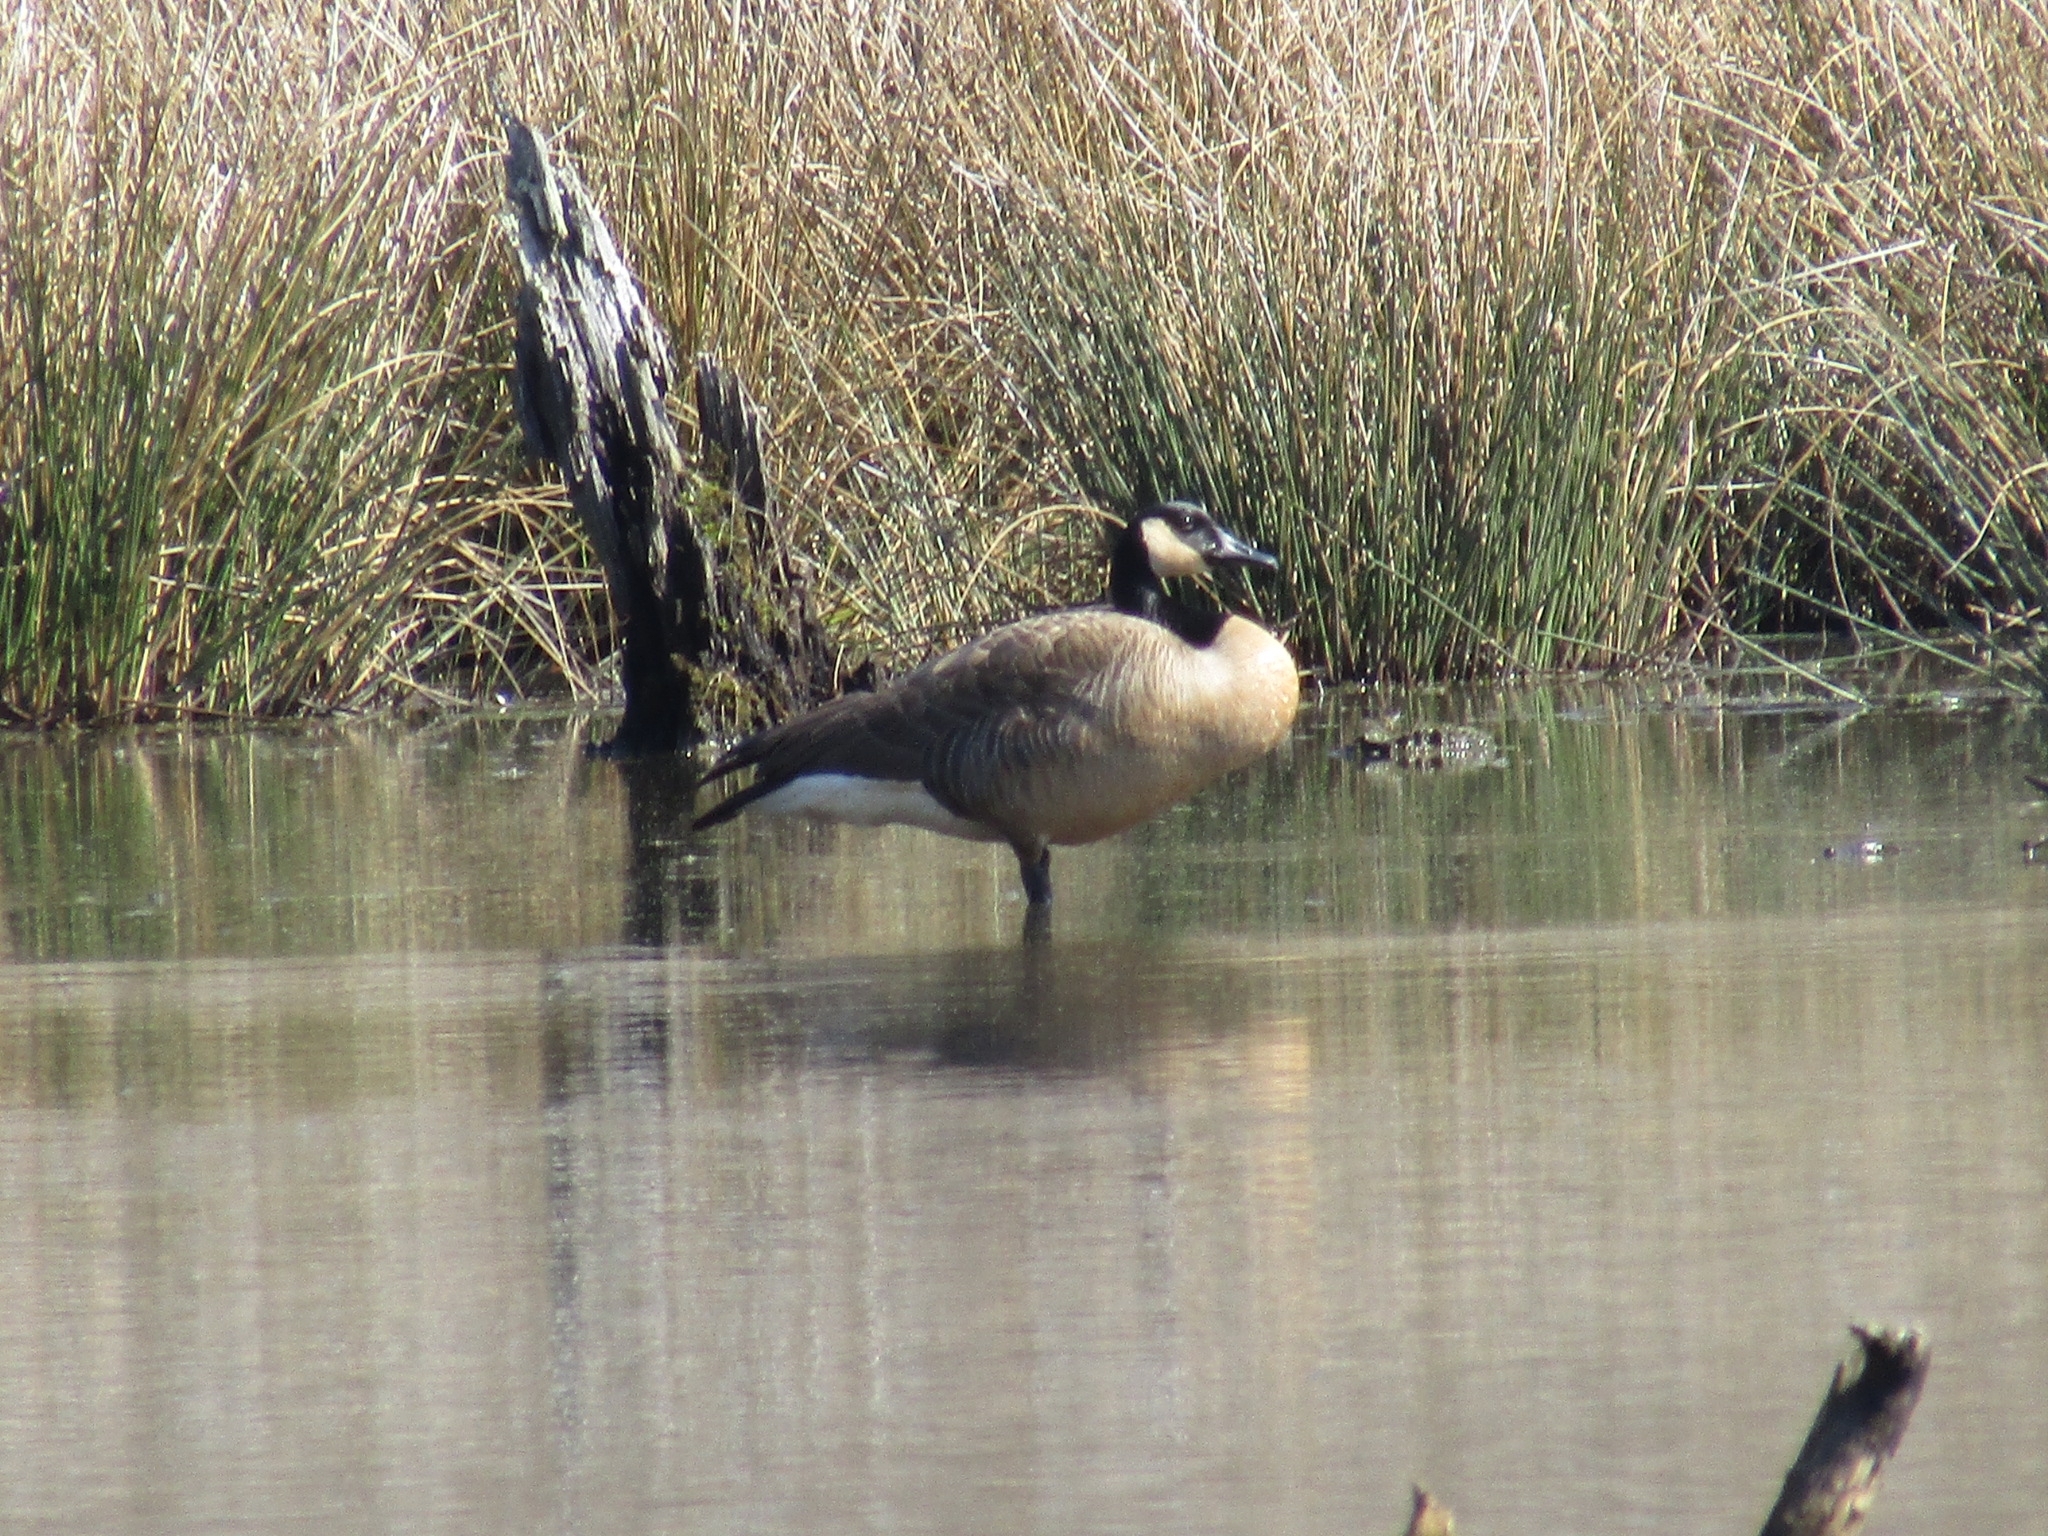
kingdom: Animalia
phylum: Chordata
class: Aves
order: Anseriformes
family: Anatidae
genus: Branta
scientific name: Branta canadensis
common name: Canada goose
